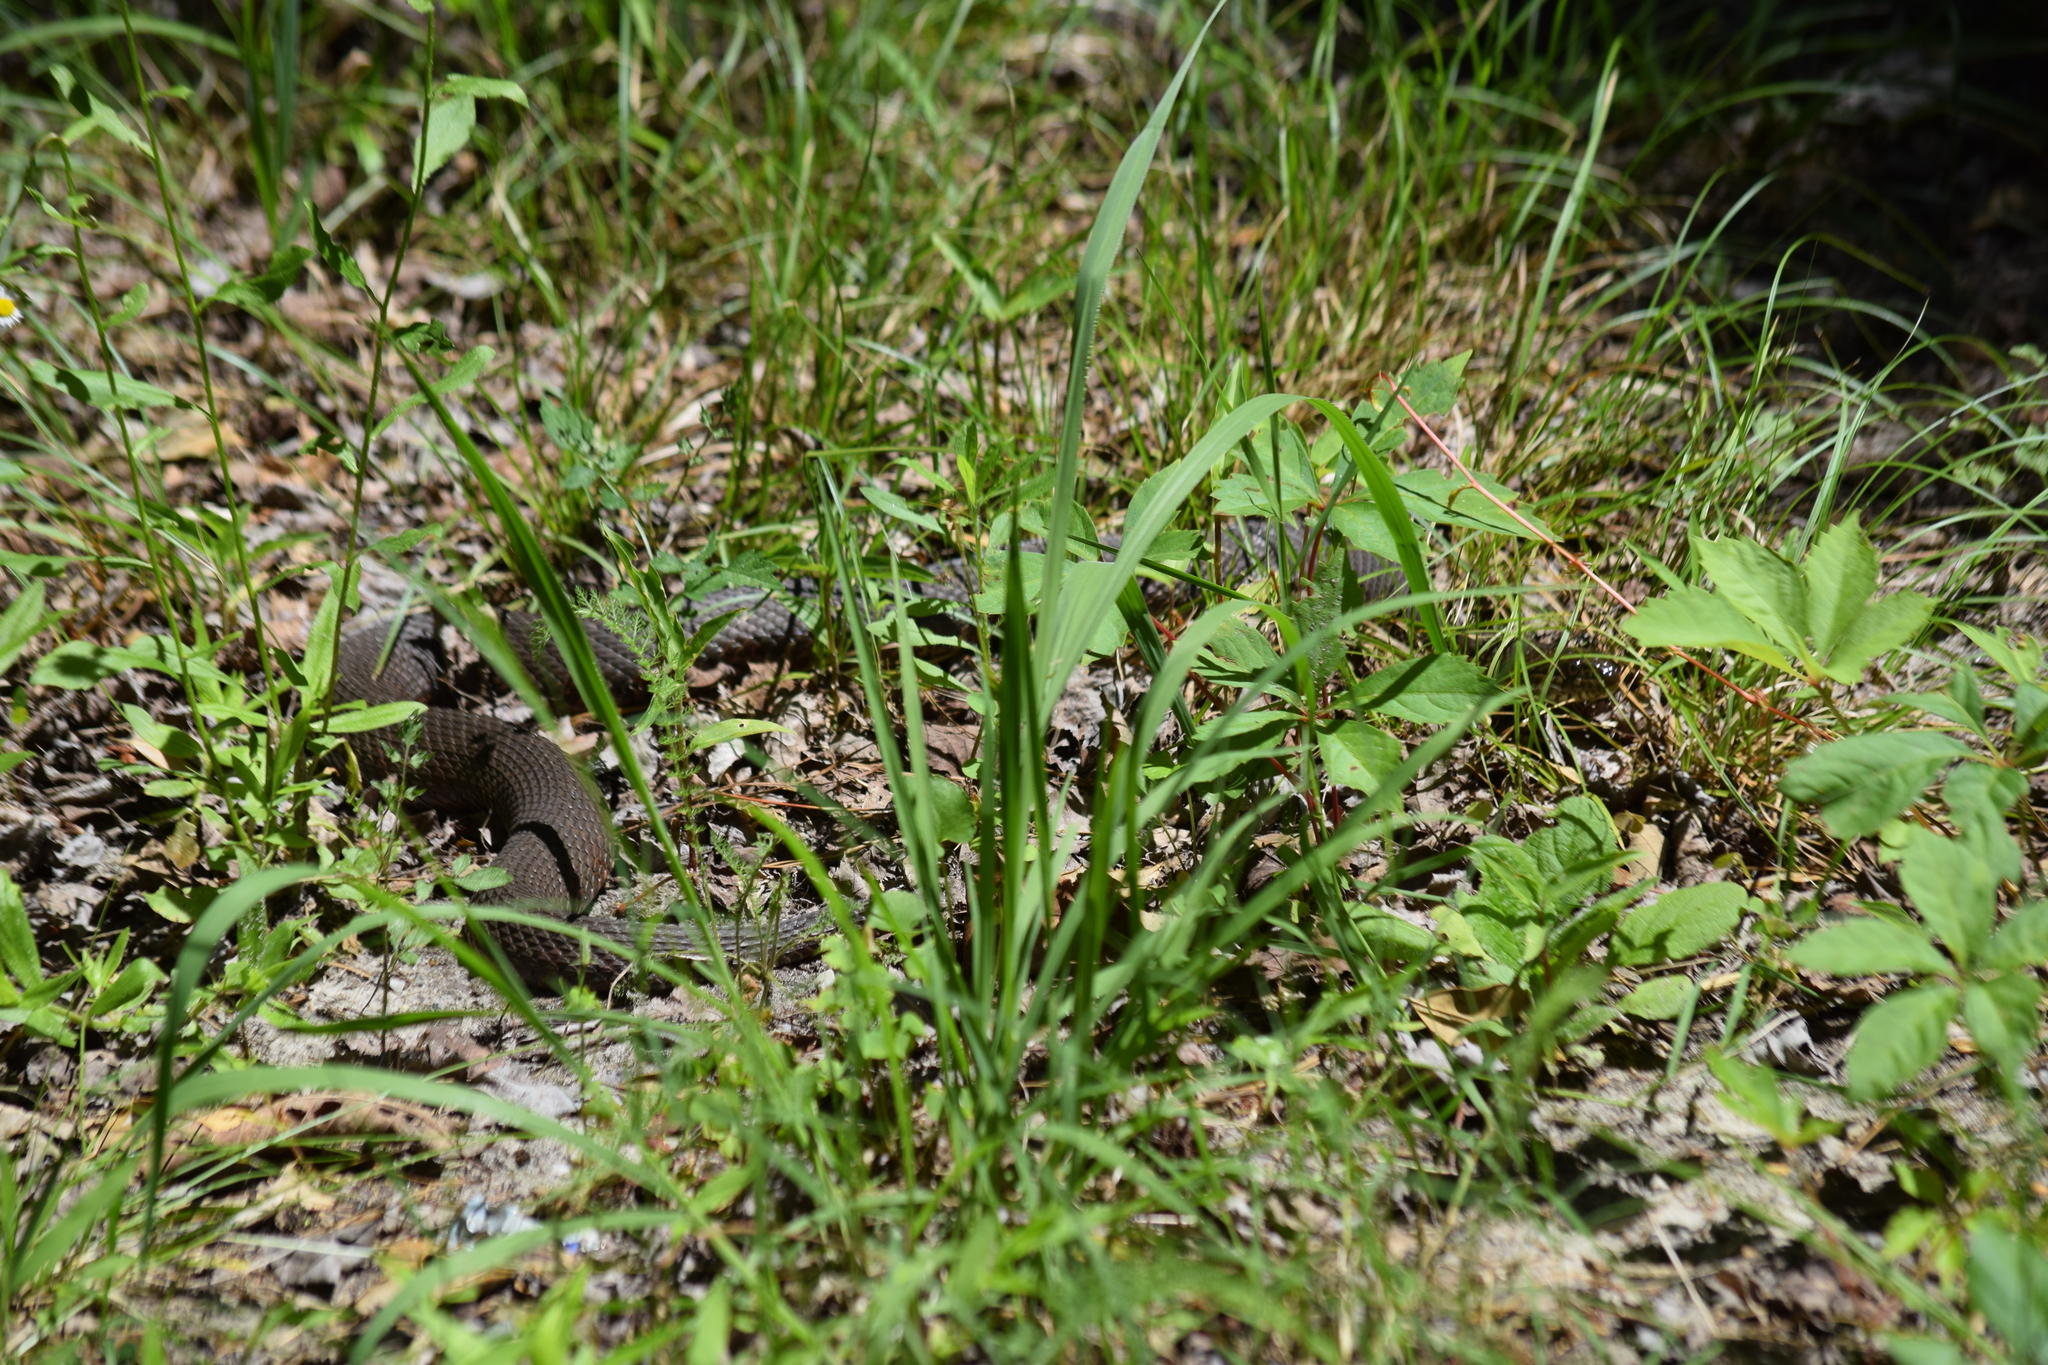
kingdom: Animalia
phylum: Chordata
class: Squamata
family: Colubridae
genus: Nerodia
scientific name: Nerodia sipedon
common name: Northern water snake
